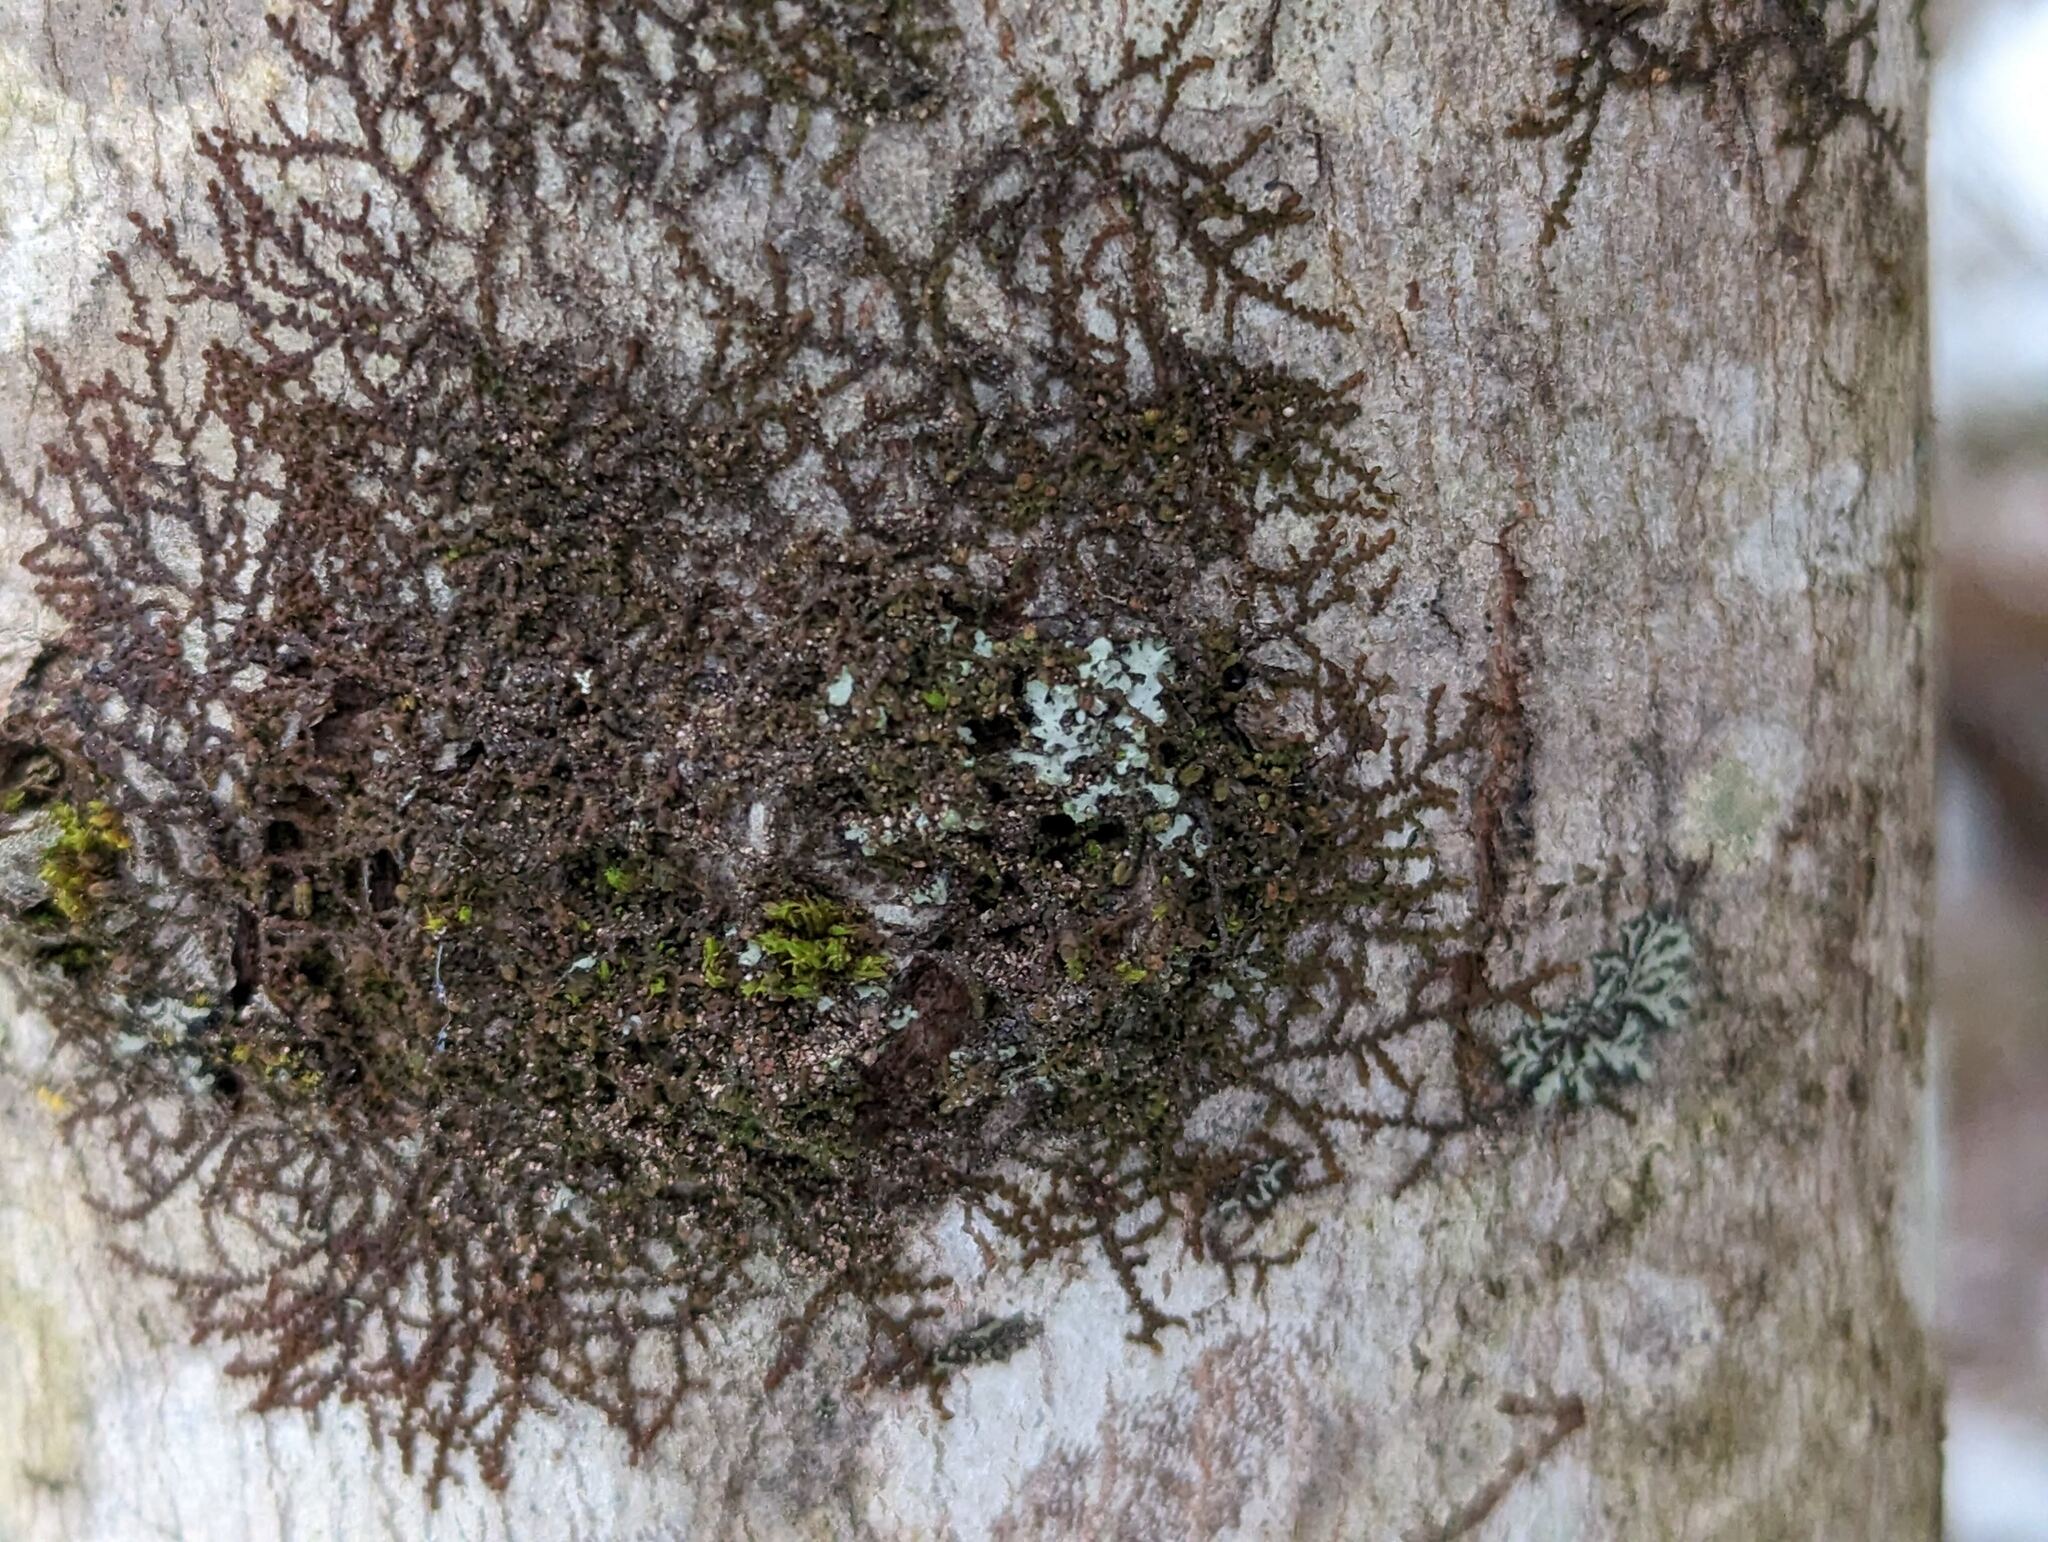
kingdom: Plantae
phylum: Marchantiophyta
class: Jungermanniopsida
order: Porellales
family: Frullaniaceae
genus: Frullania
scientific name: Frullania eboracensis
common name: New york scalewort
